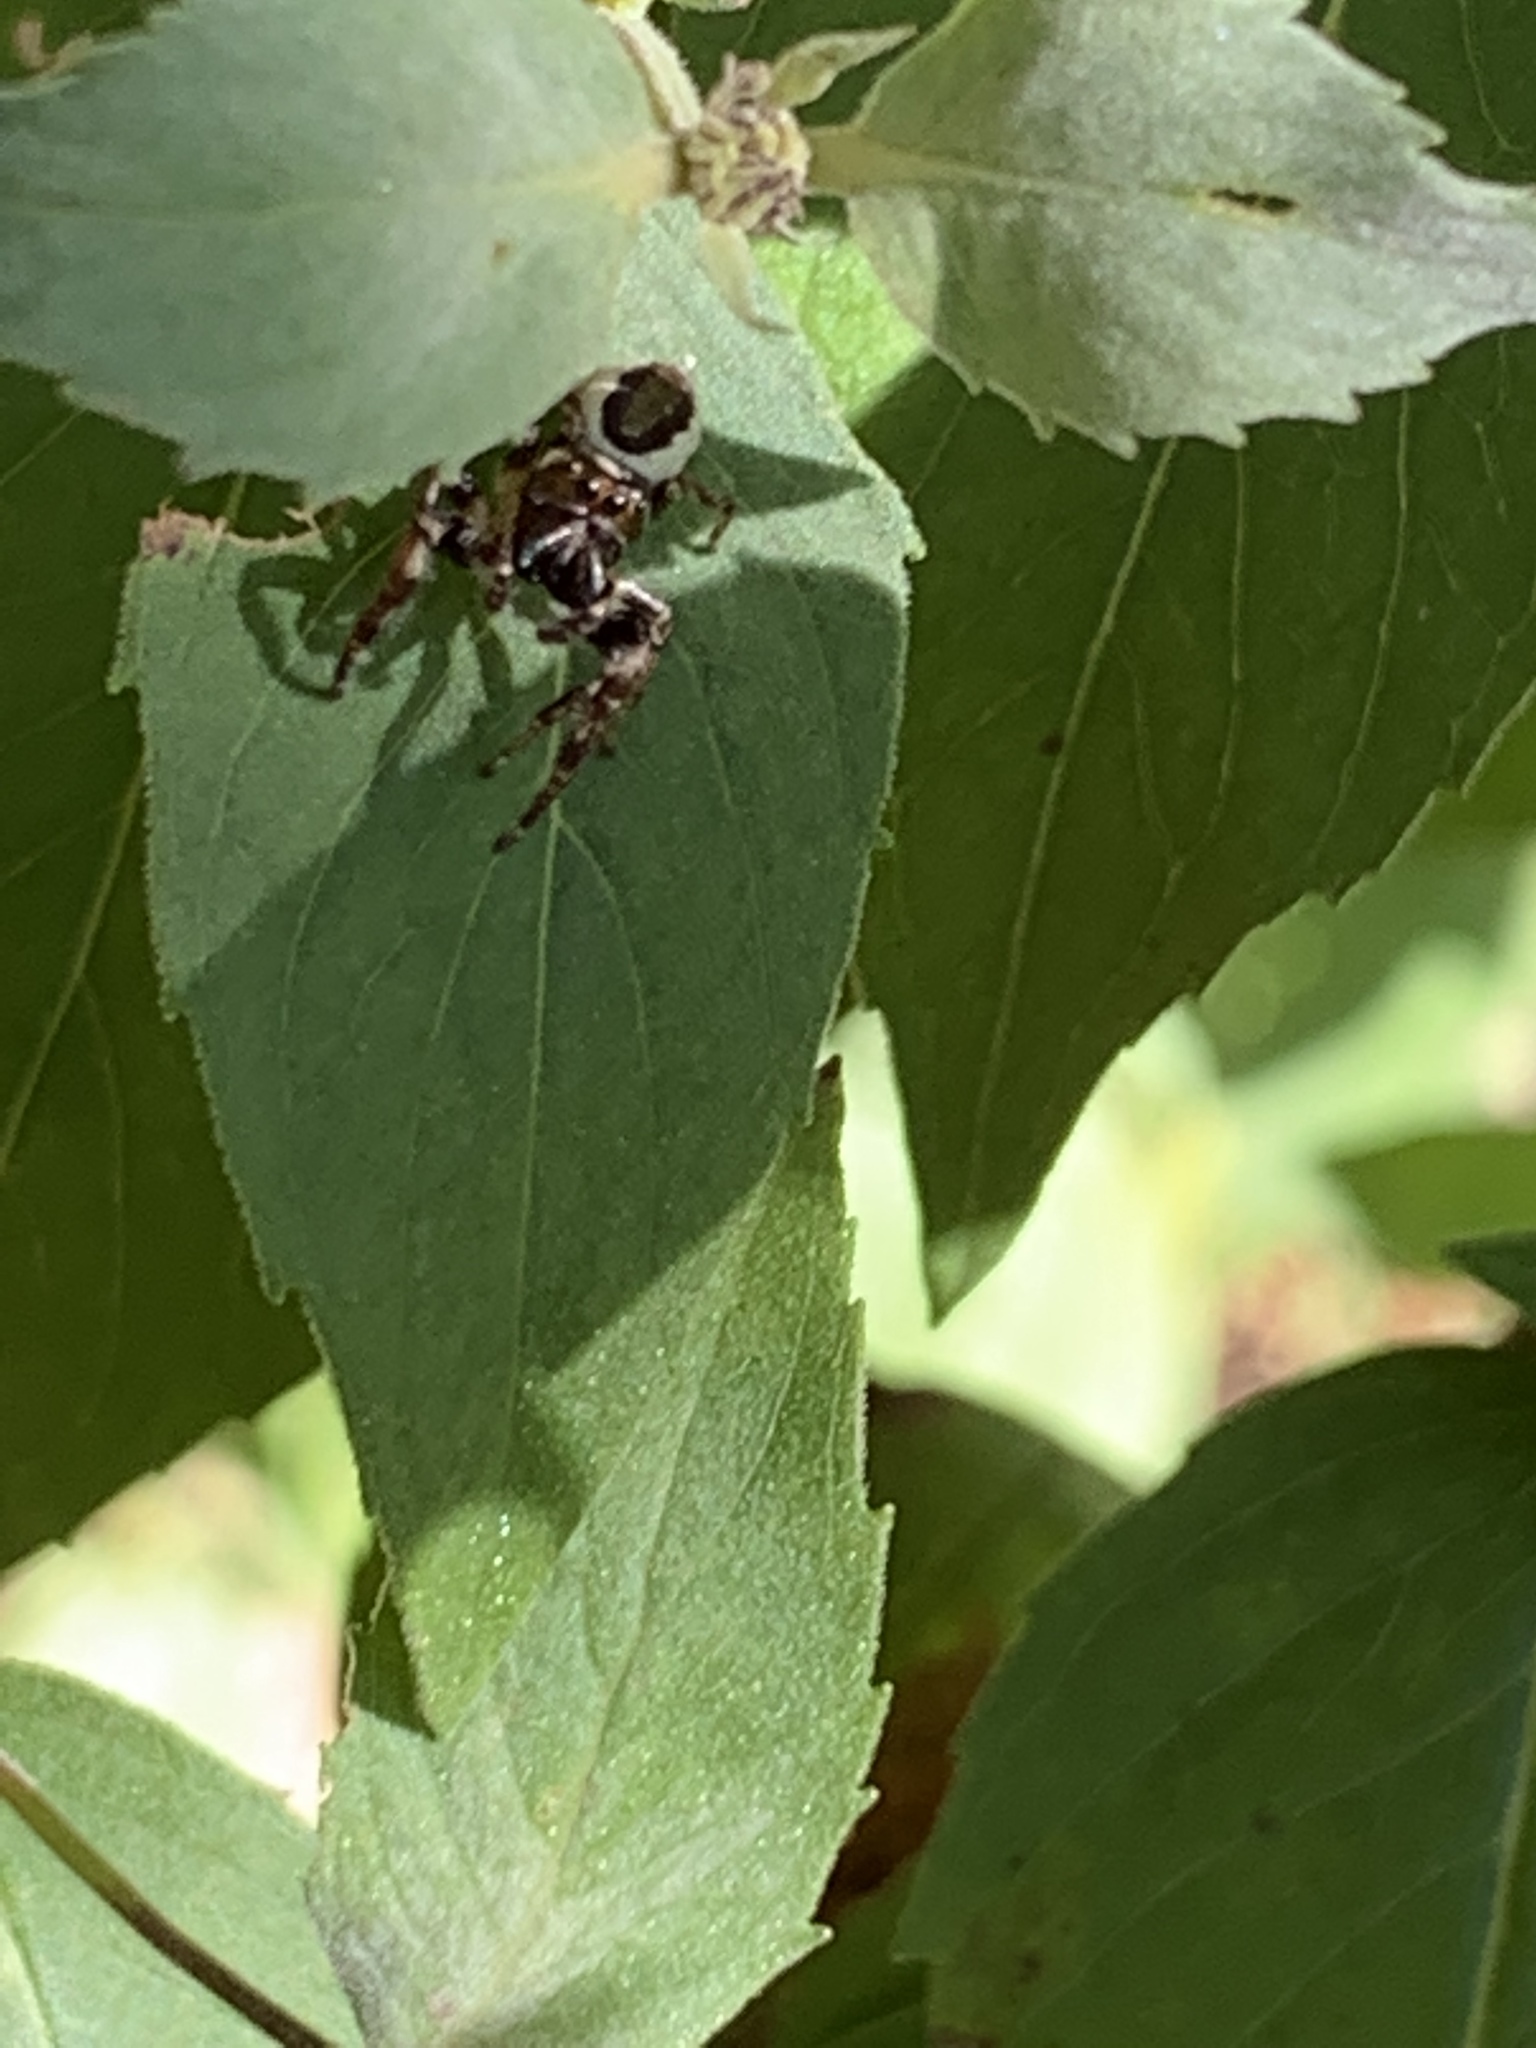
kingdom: Animalia
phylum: Arthropoda
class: Arachnida
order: Araneae
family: Salticidae
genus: Eris
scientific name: Eris militaris
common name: Bronze jumper
